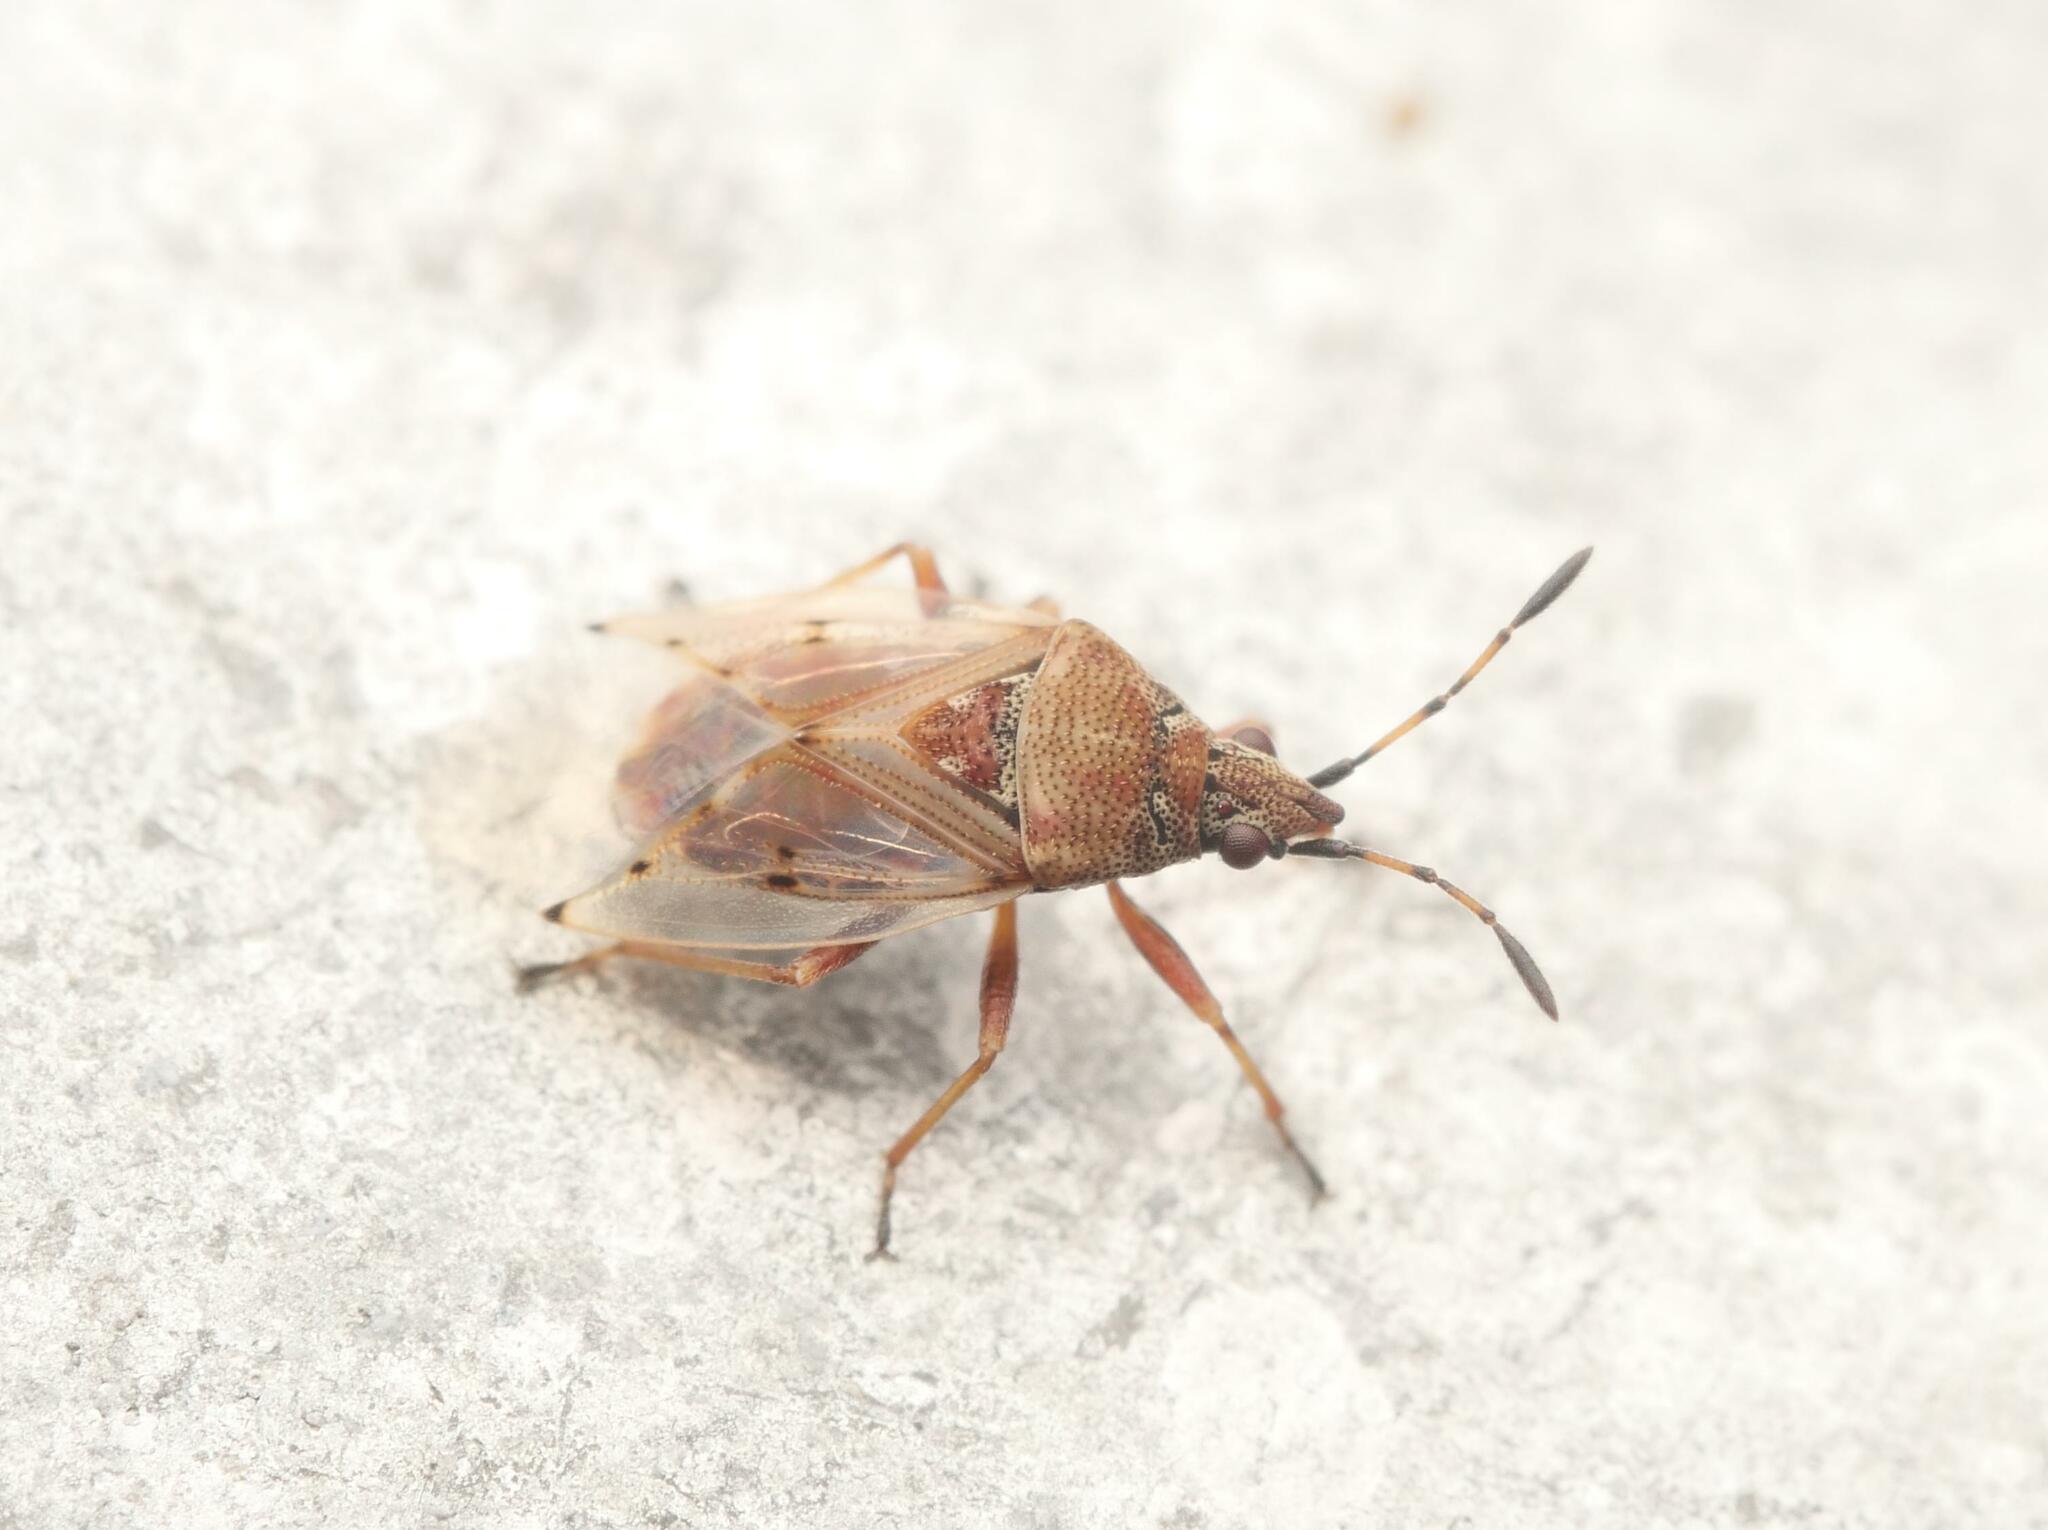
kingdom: Animalia
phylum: Arthropoda
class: Insecta
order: Hemiptera
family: Lygaeidae
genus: Kleidocerys
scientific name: Kleidocerys resedae
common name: Birch catkin bug
